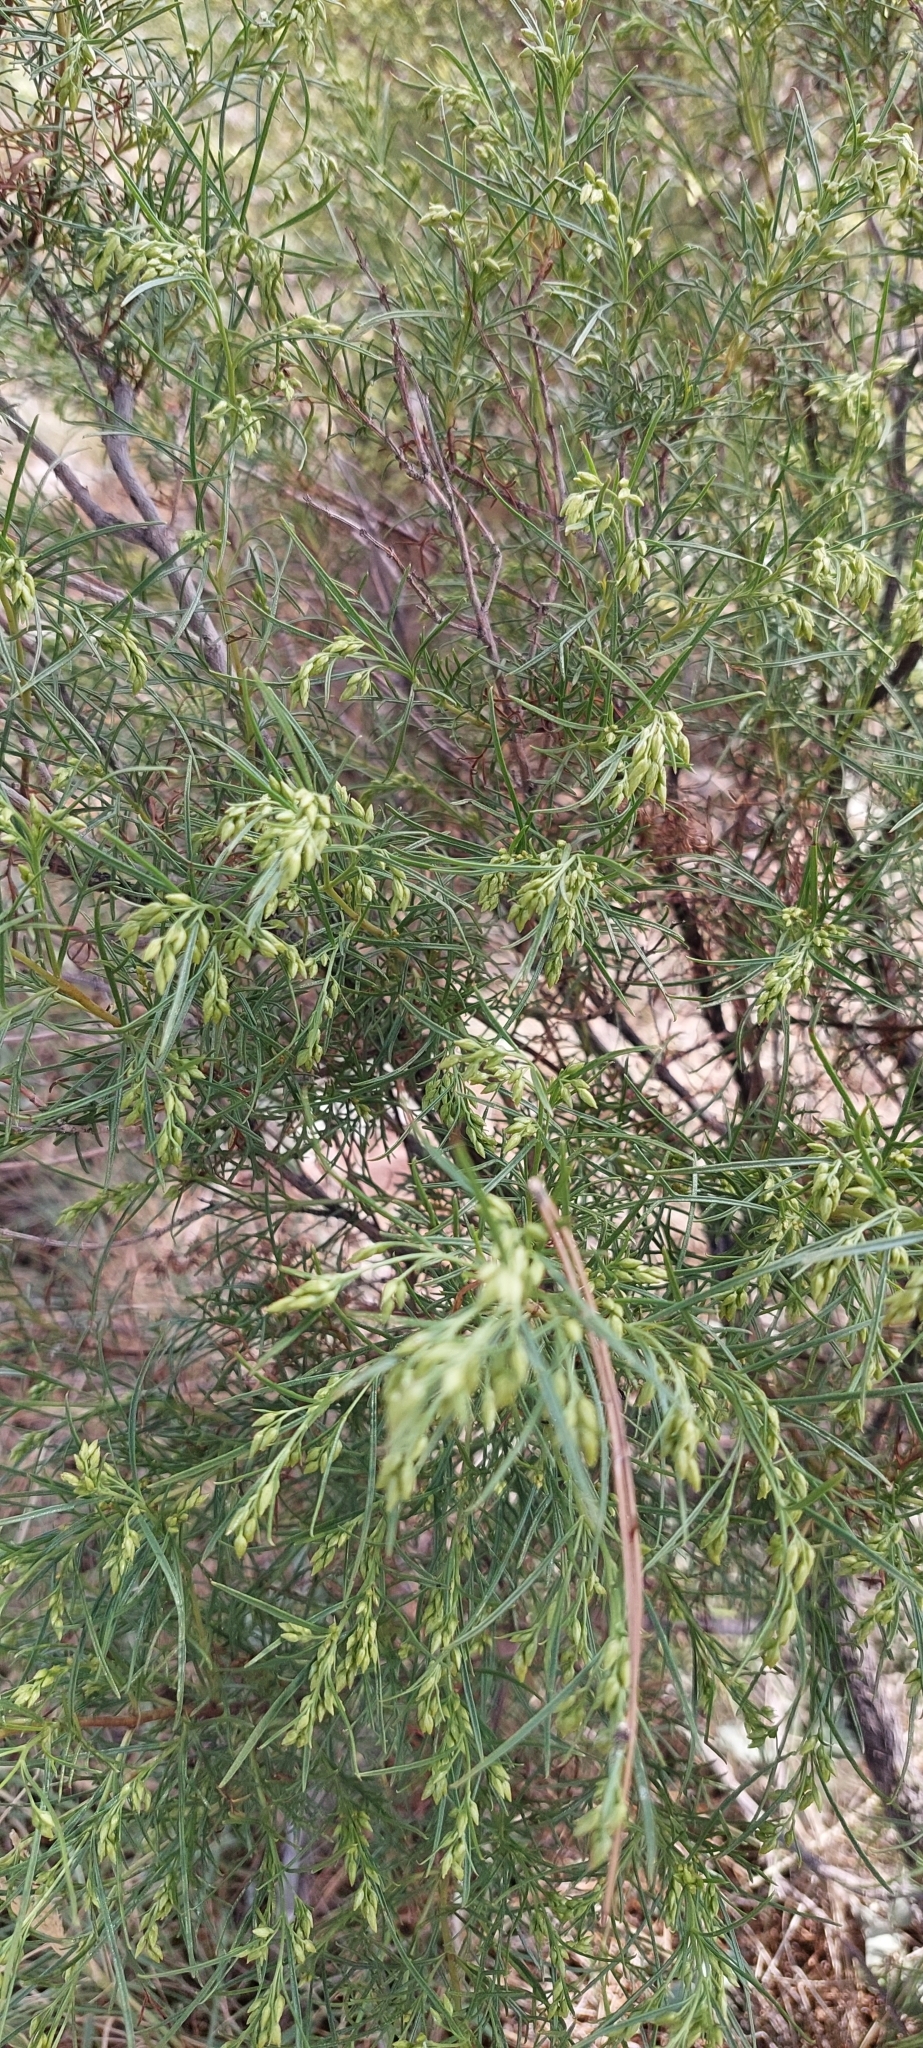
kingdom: Plantae
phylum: Tracheophyta
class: Magnoliopsida
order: Asterales
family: Asteraceae
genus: Acanthostyles
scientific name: Acanthostyles buniifolius
